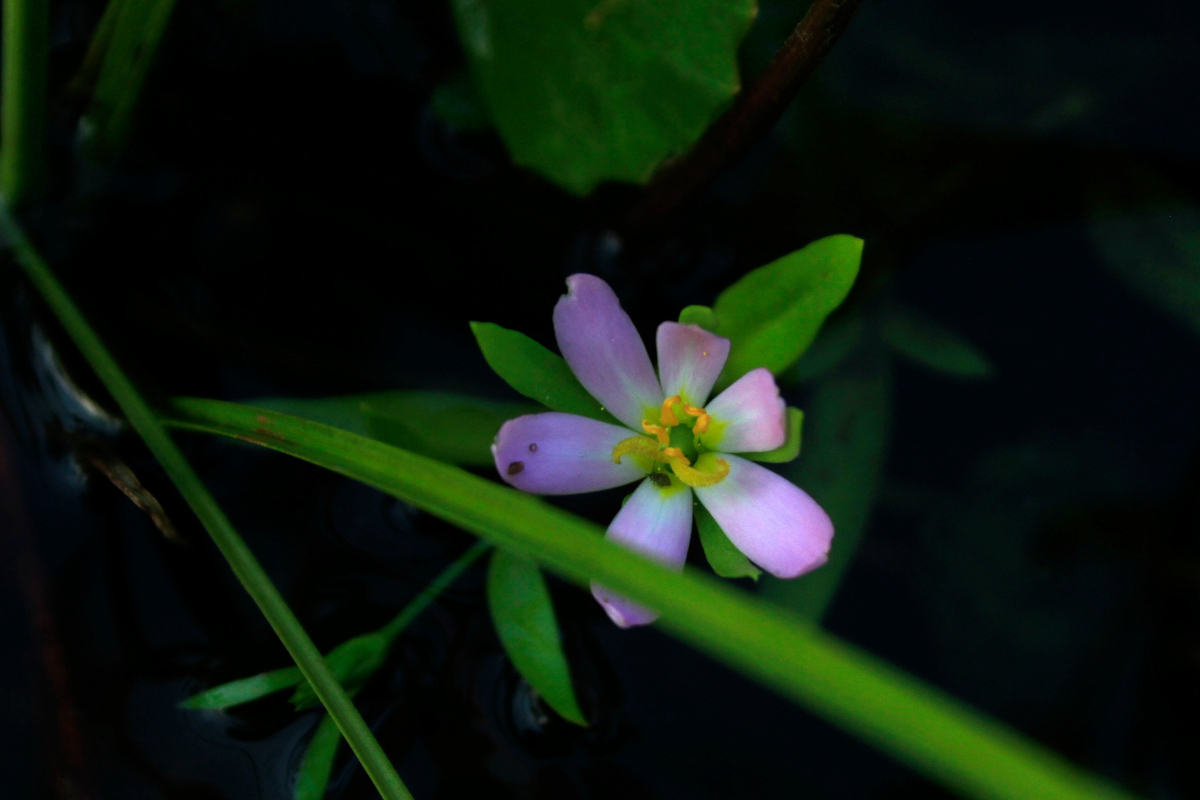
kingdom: Plantae
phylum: Tracheophyta
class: Magnoliopsida
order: Gentianales
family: Gentianaceae
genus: Sabatia
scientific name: Sabatia calycina
